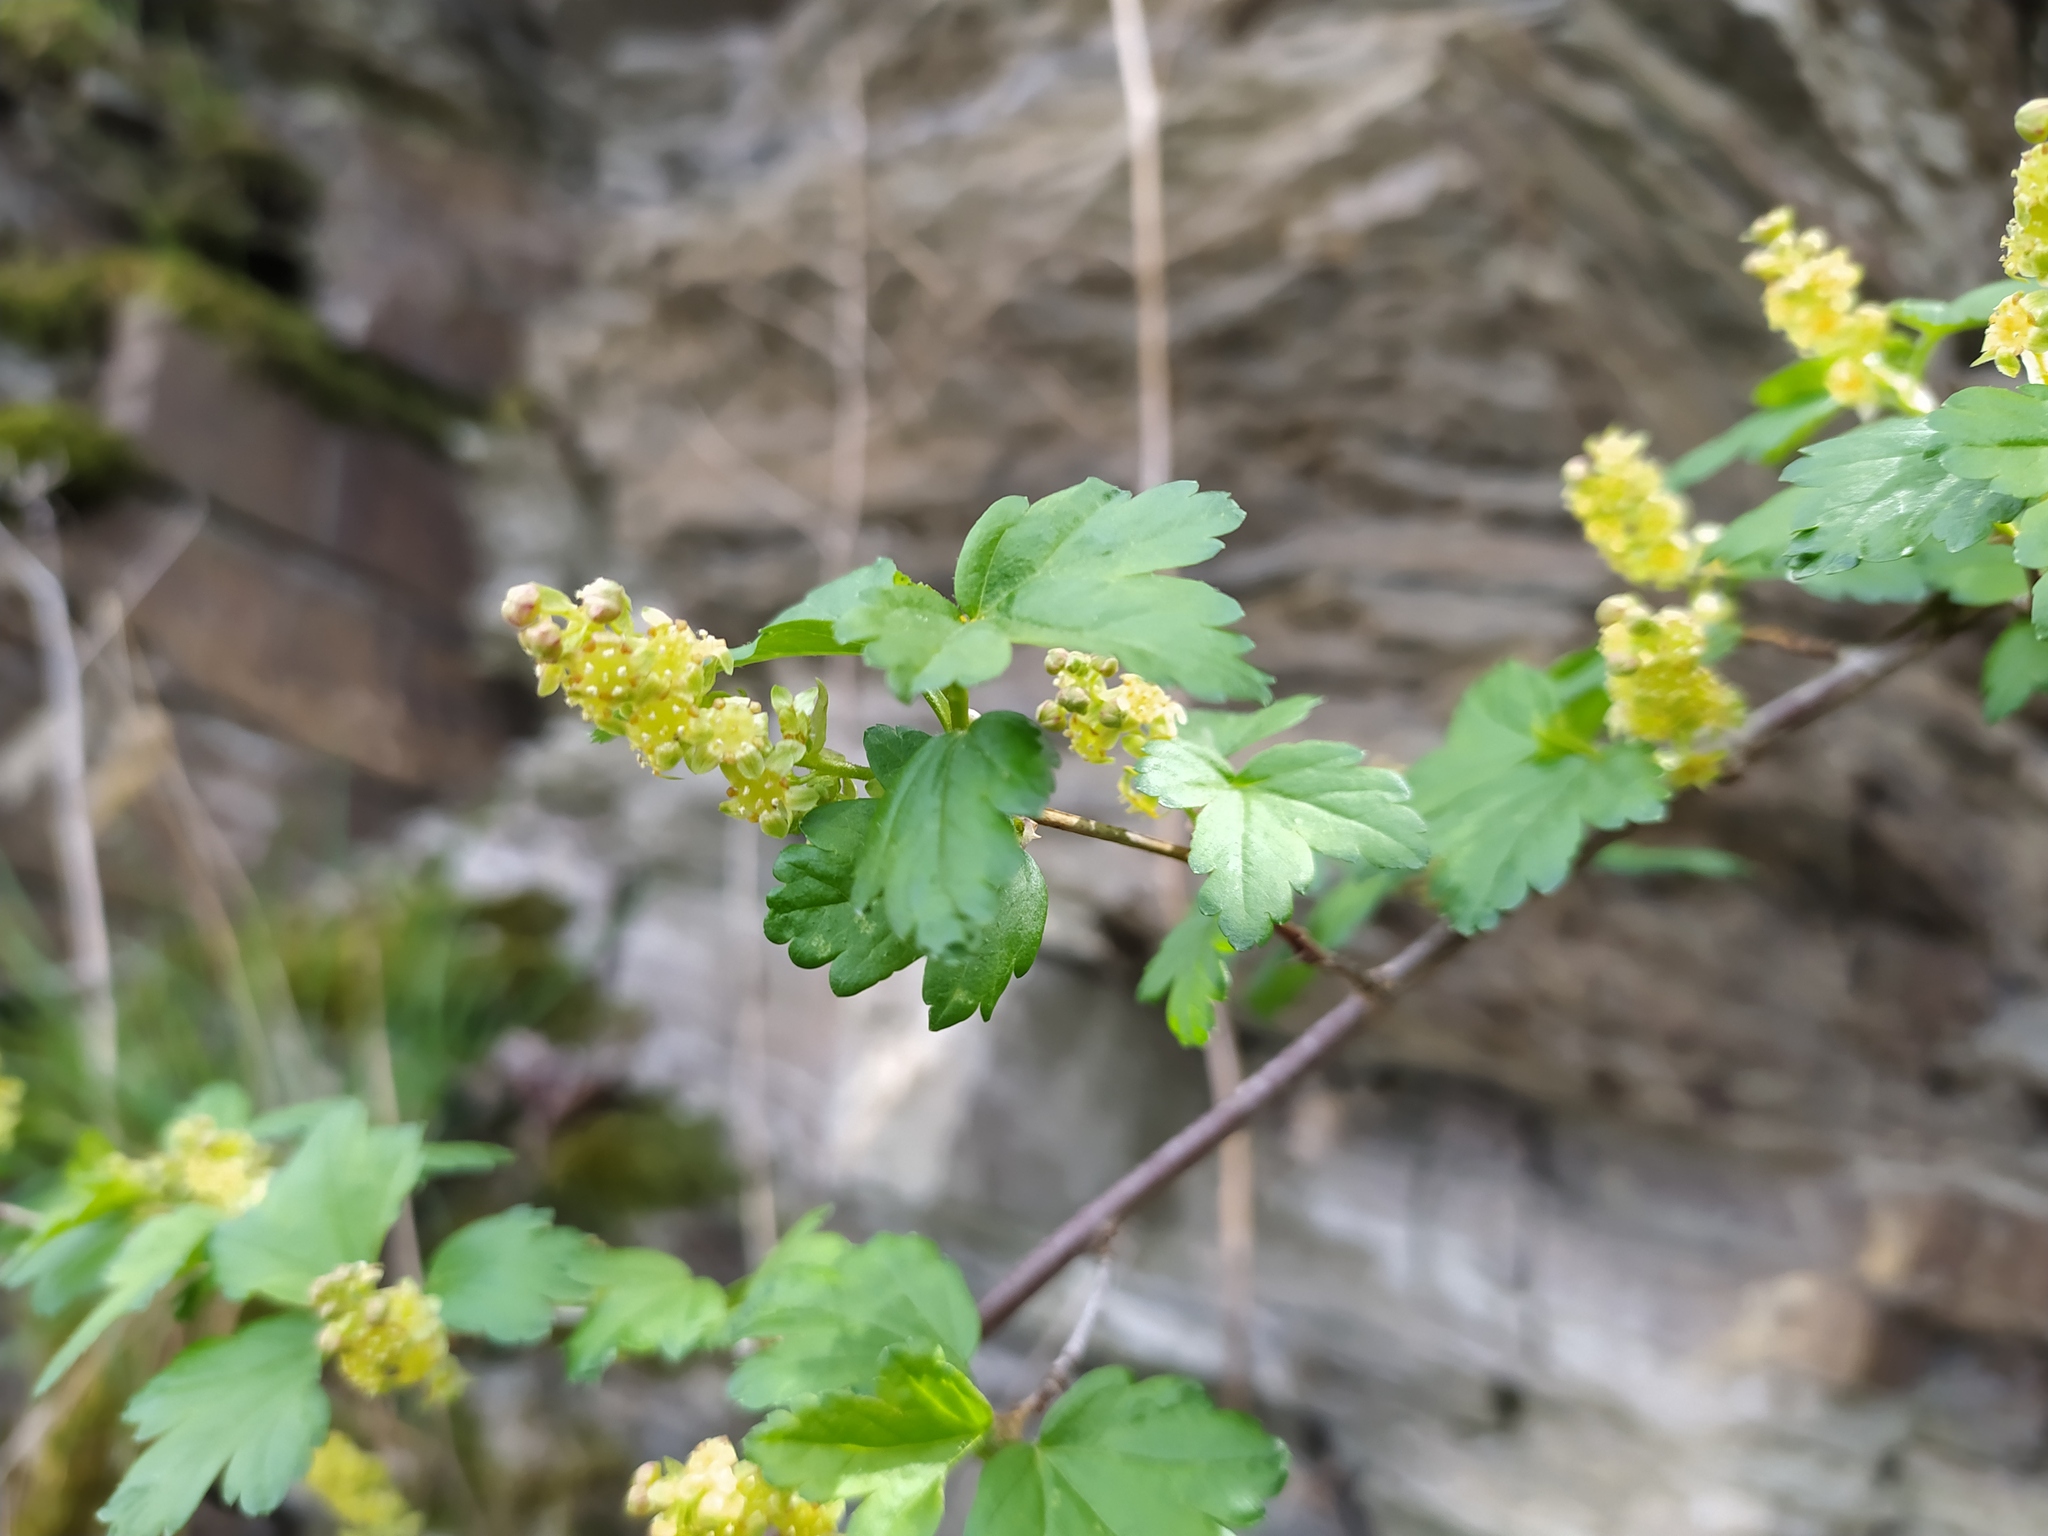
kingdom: Plantae
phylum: Tracheophyta
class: Magnoliopsida
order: Saxifragales
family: Grossulariaceae
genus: Ribes
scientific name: Ribes alpinum
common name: Alpine currant
